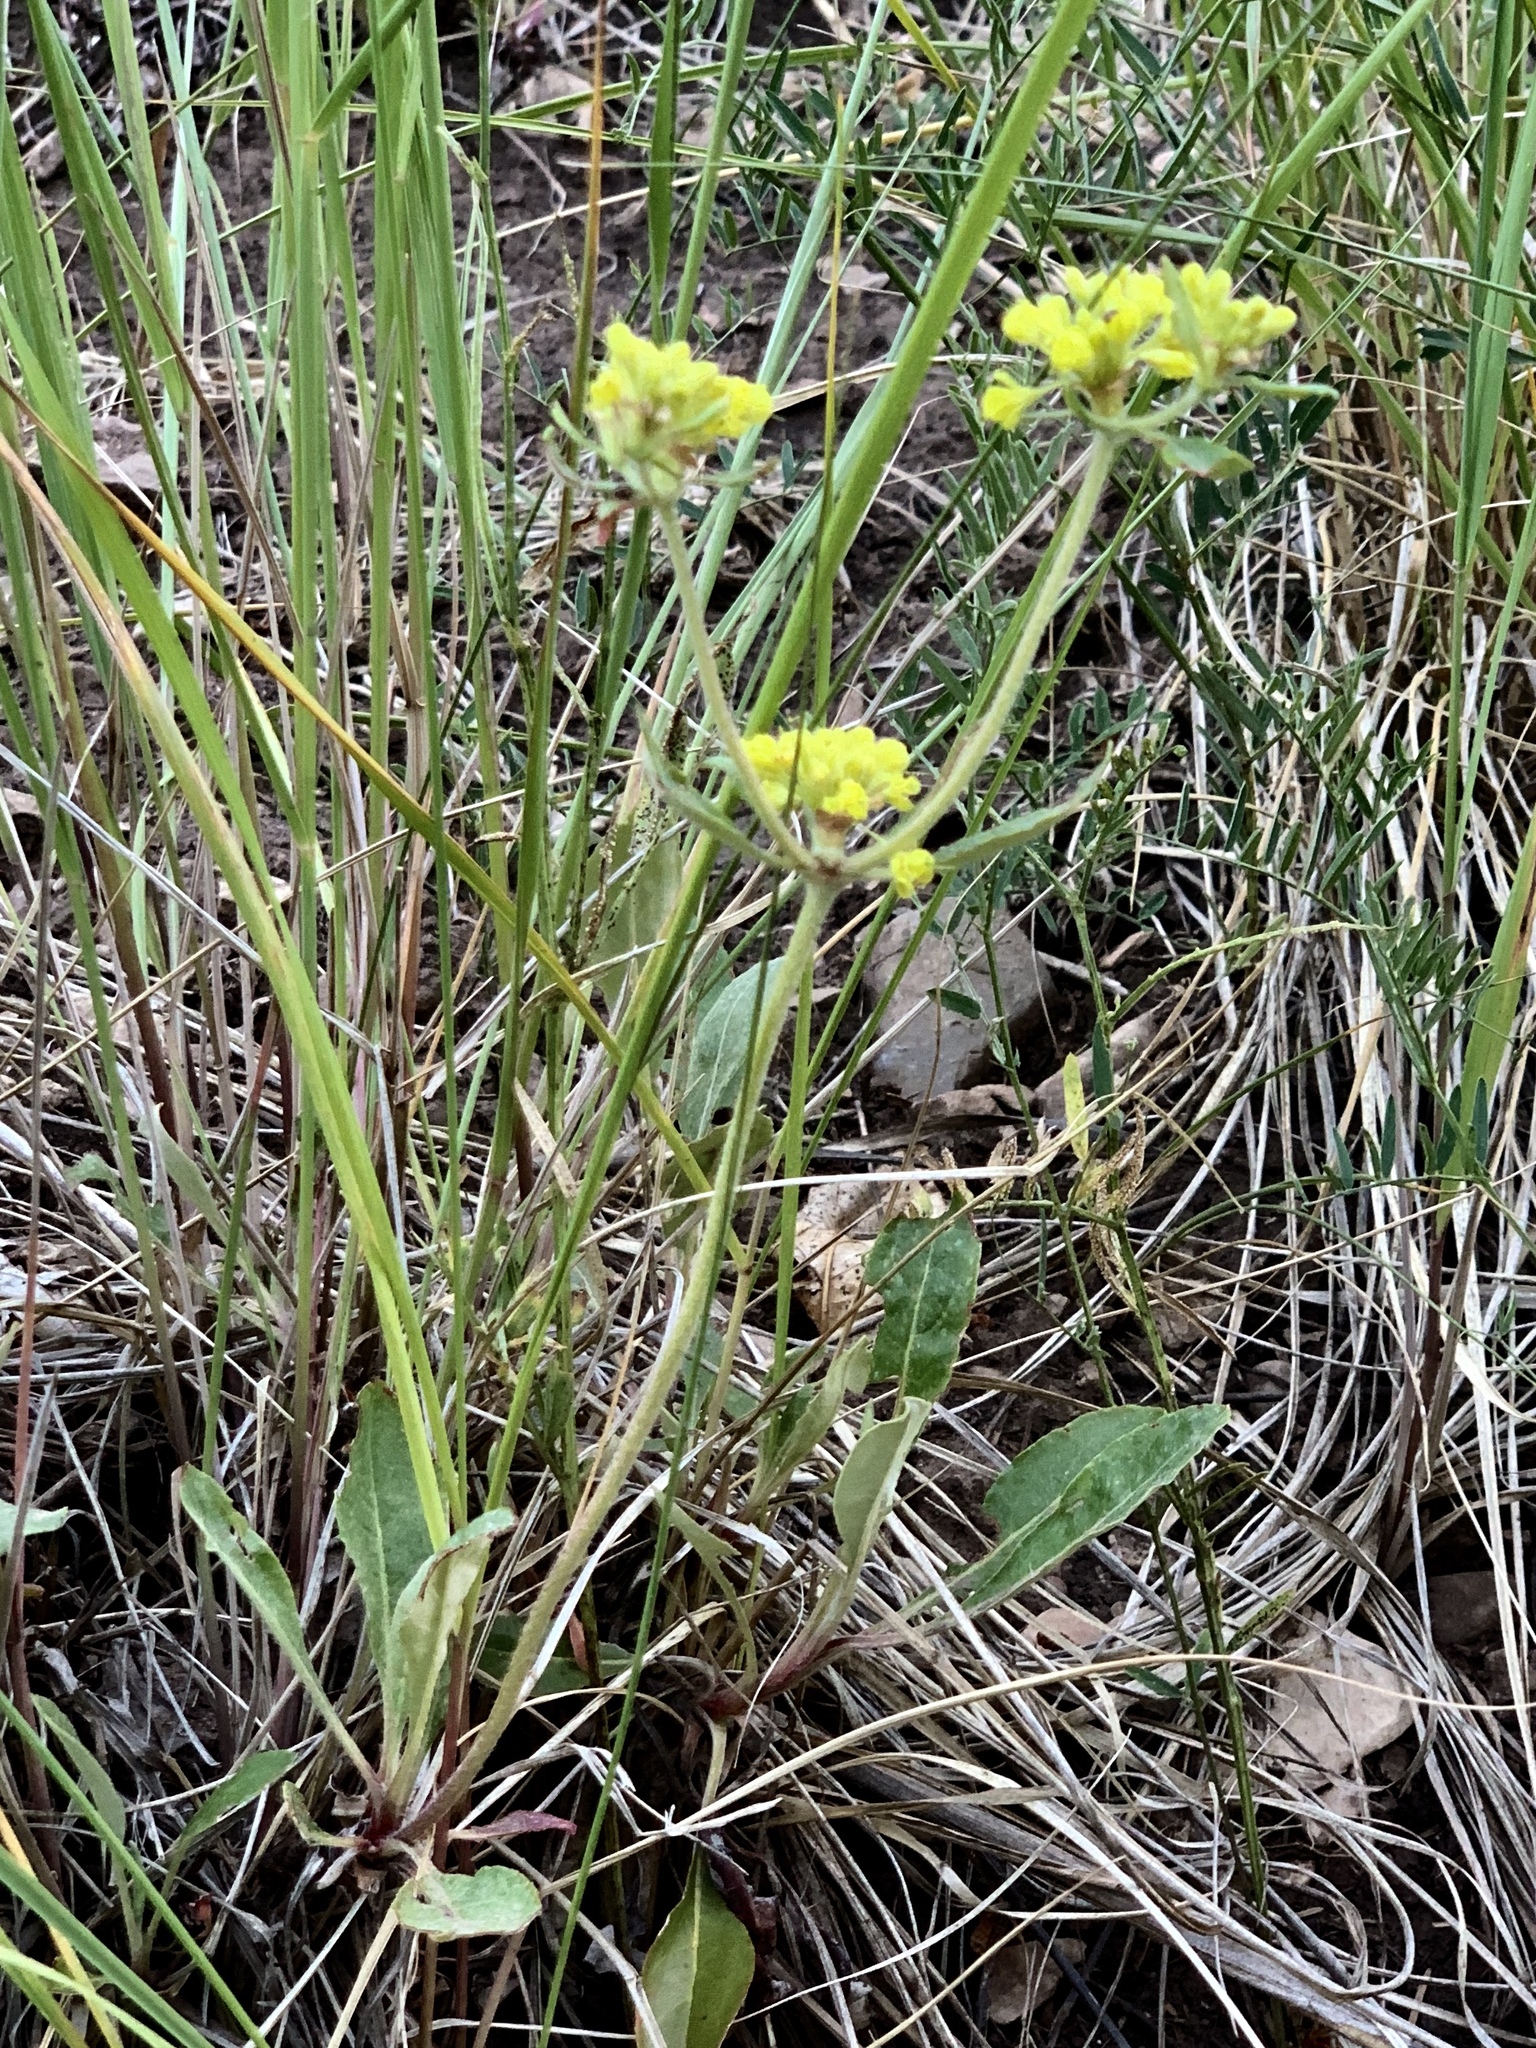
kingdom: Plantae
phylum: Tracheophyta
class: Magnoliopsida
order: Caryophyllales
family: Polygonaceae
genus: Eriogonum
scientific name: Eriogonum wootonii
